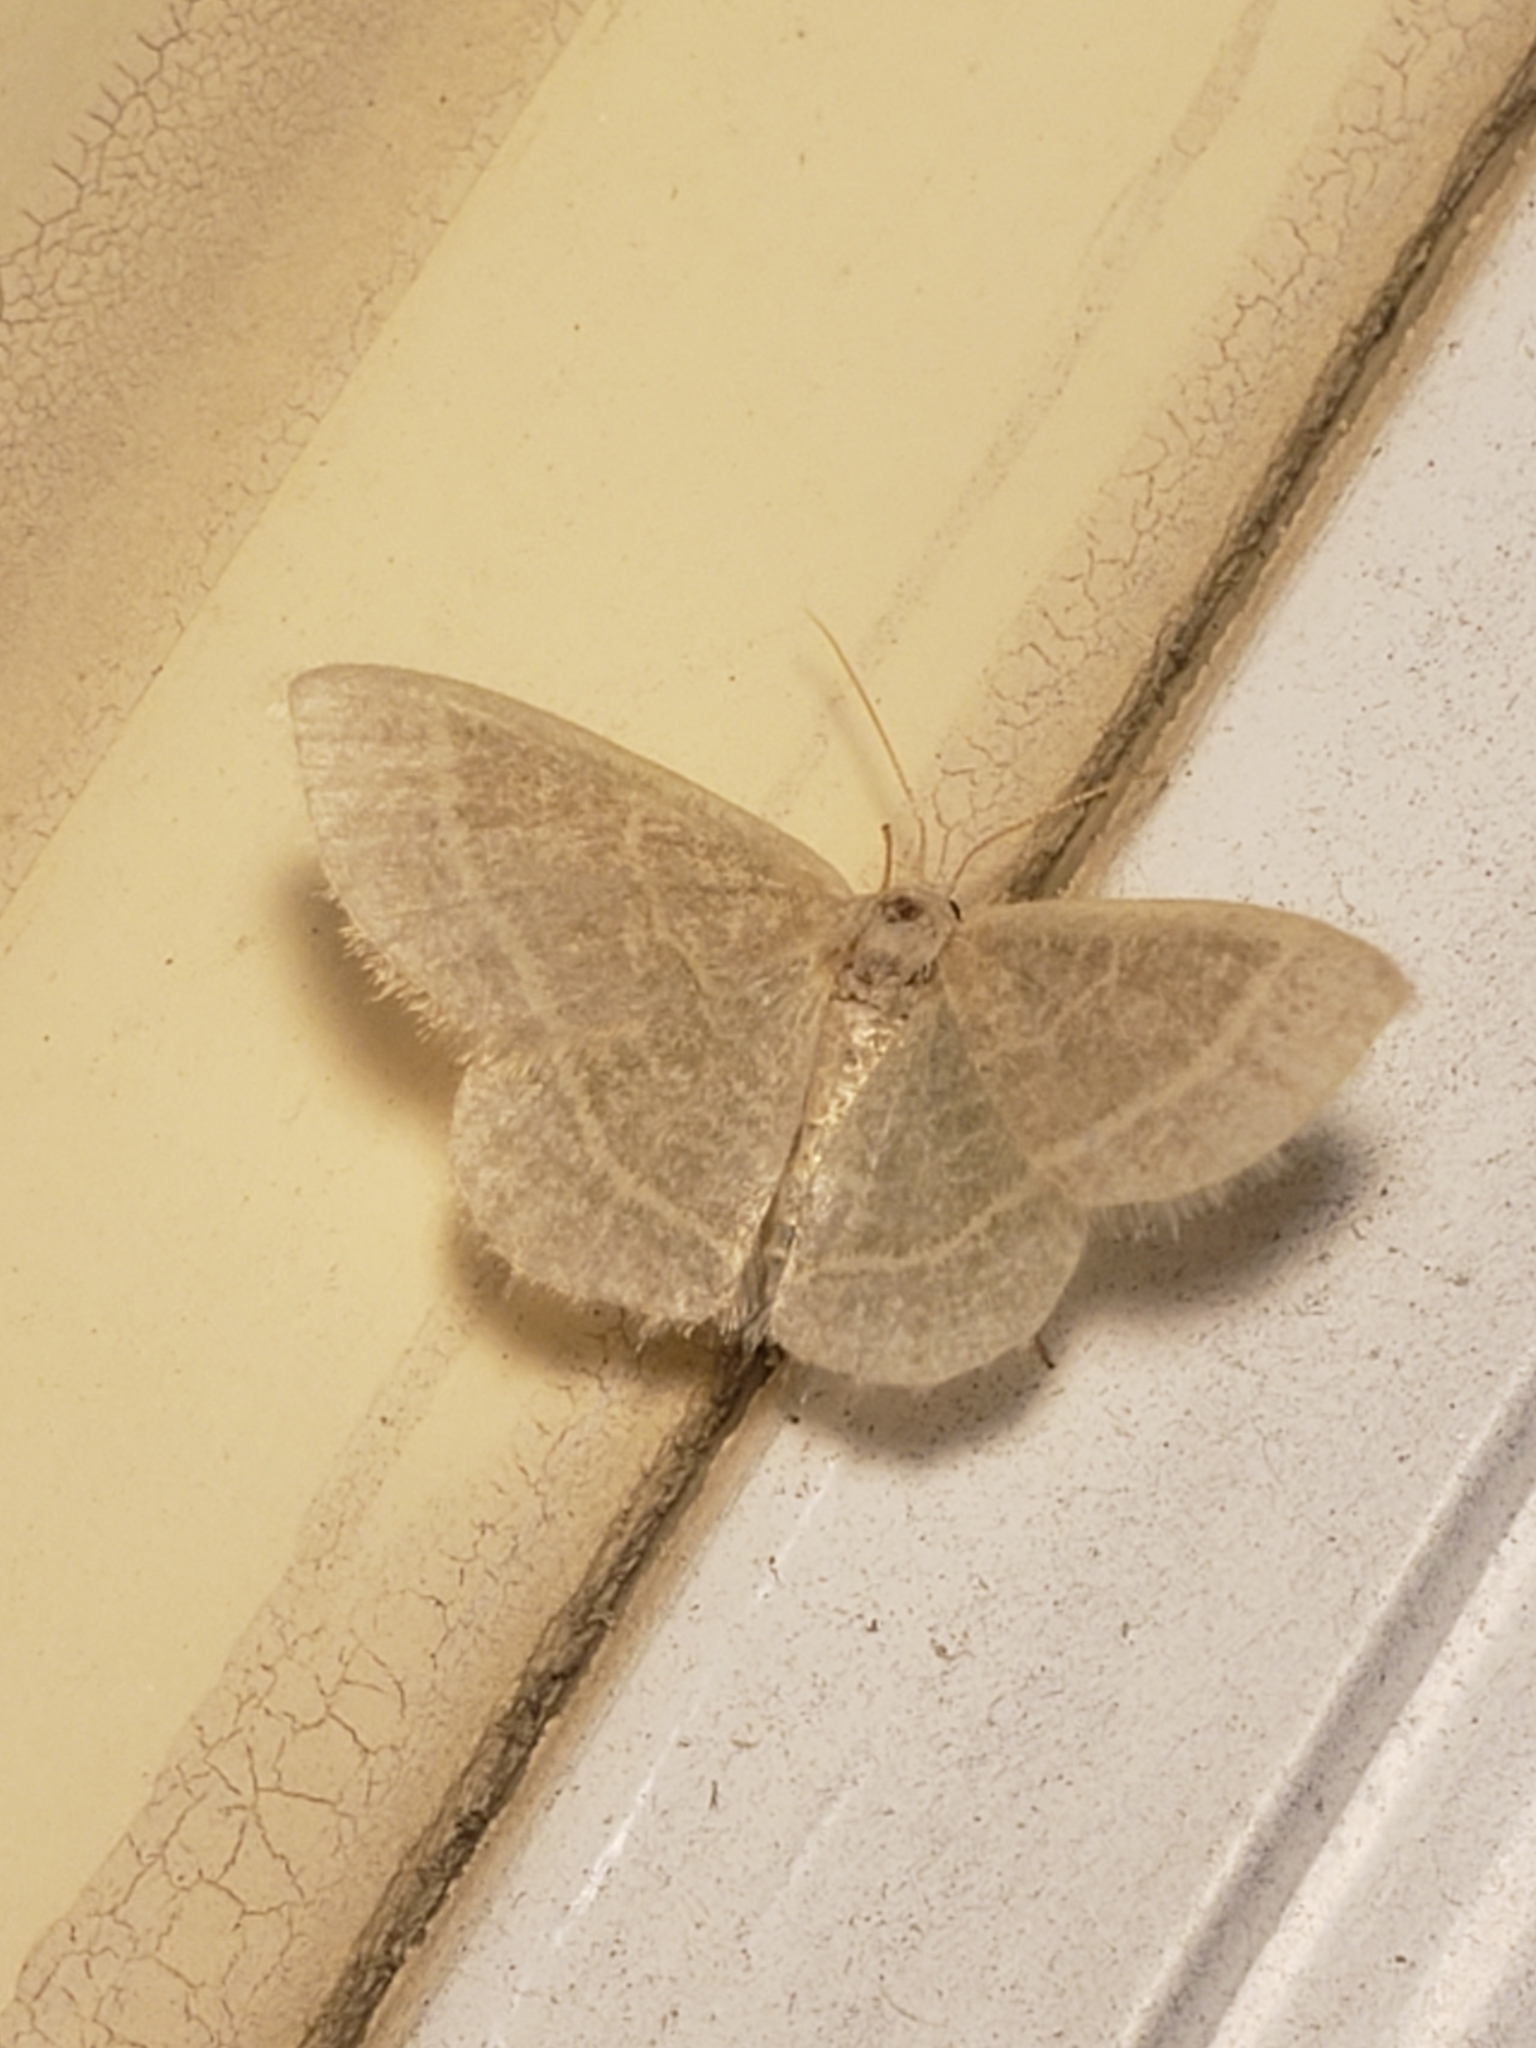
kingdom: Animalia
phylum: Arthropoda
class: Insecta
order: Lepidoptera
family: Geometridae
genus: Chlorochlamys
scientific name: Chlorochlamys chloroleucaria
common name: Blackberry looper
